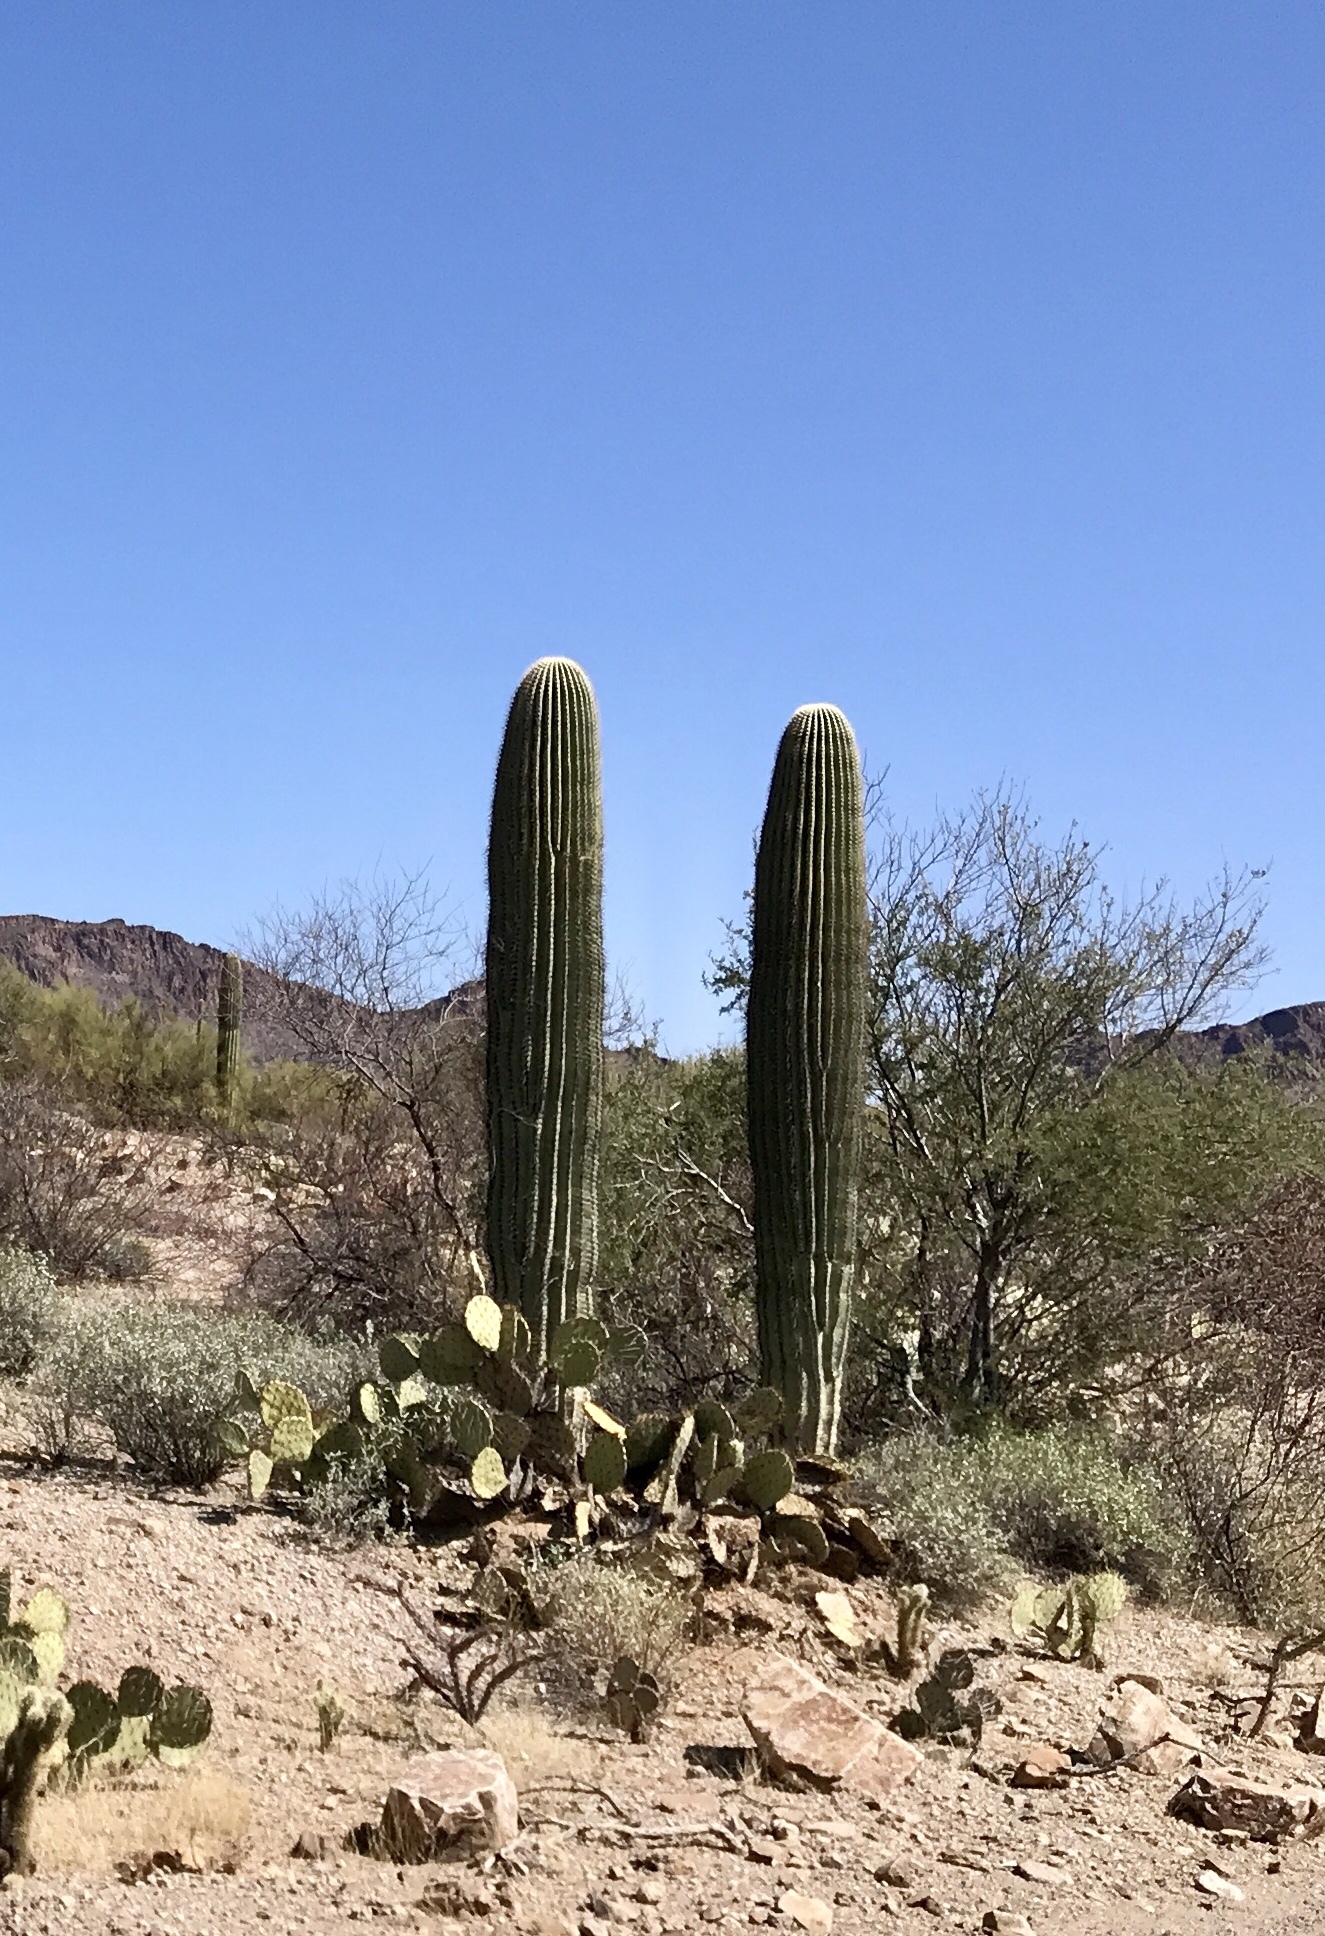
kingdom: Plantae
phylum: Tracheophyta
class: Magnoliopsida
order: Caryophyllales
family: Cactaceae
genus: Carnegiea
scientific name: Carnegiea gigantea
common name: Saguaro
